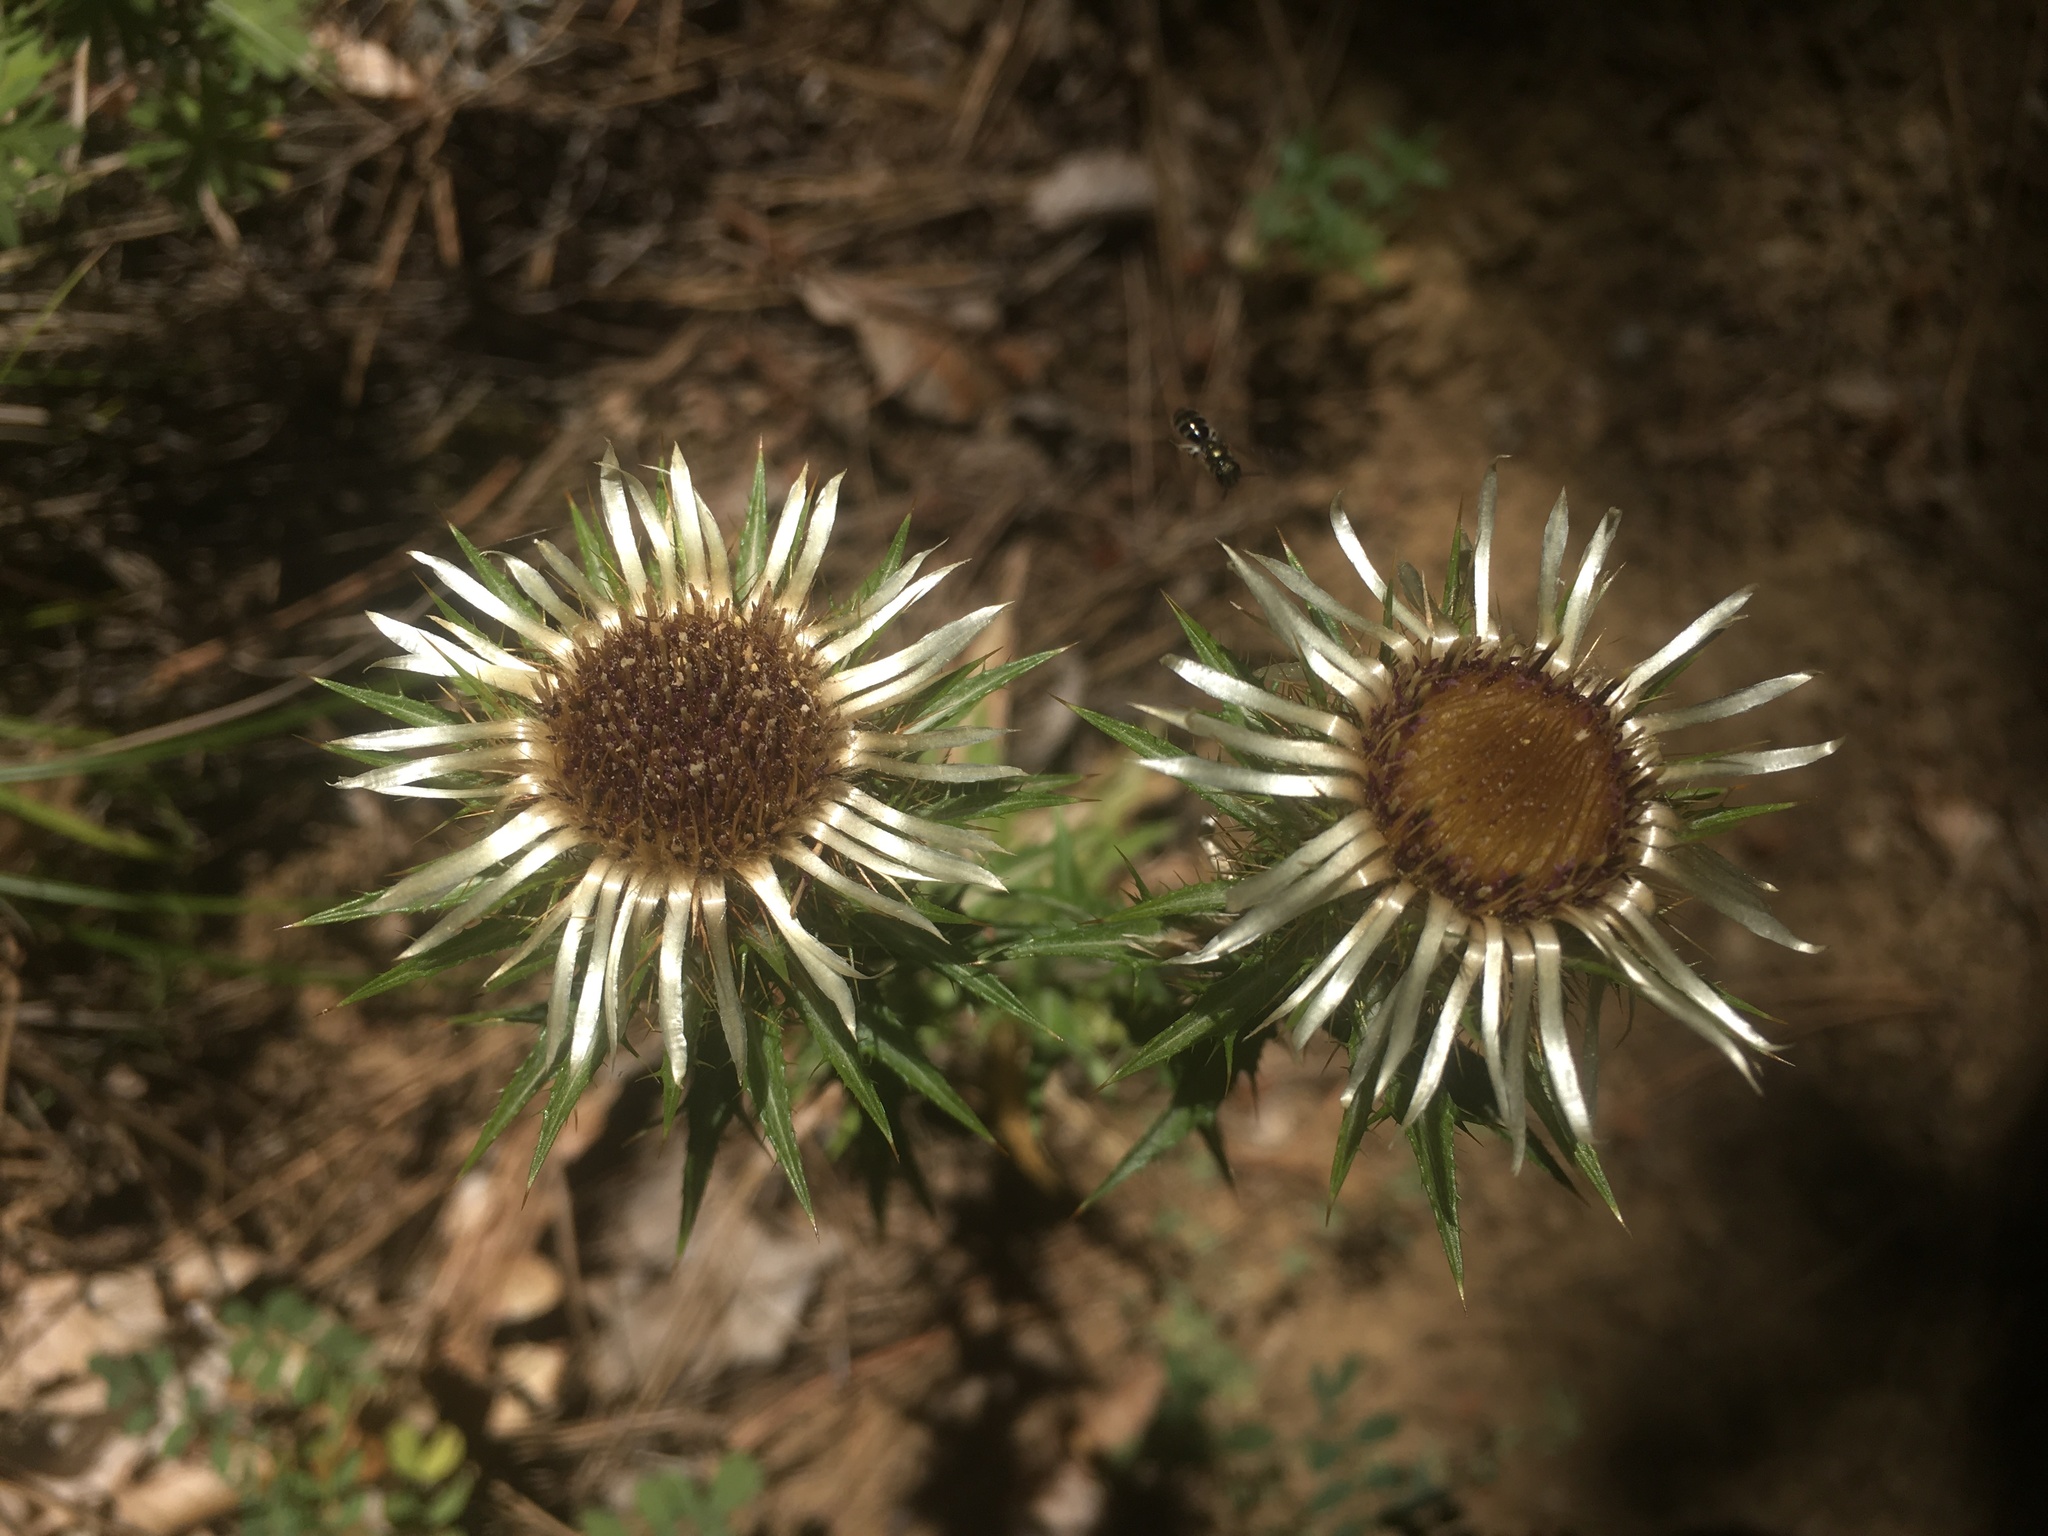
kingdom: Plantae
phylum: Tracheophyta
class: Magnoliopsida
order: Asterales
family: Asteraceae
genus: Carlina
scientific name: Carlina vulgaris
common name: Carline thistle
